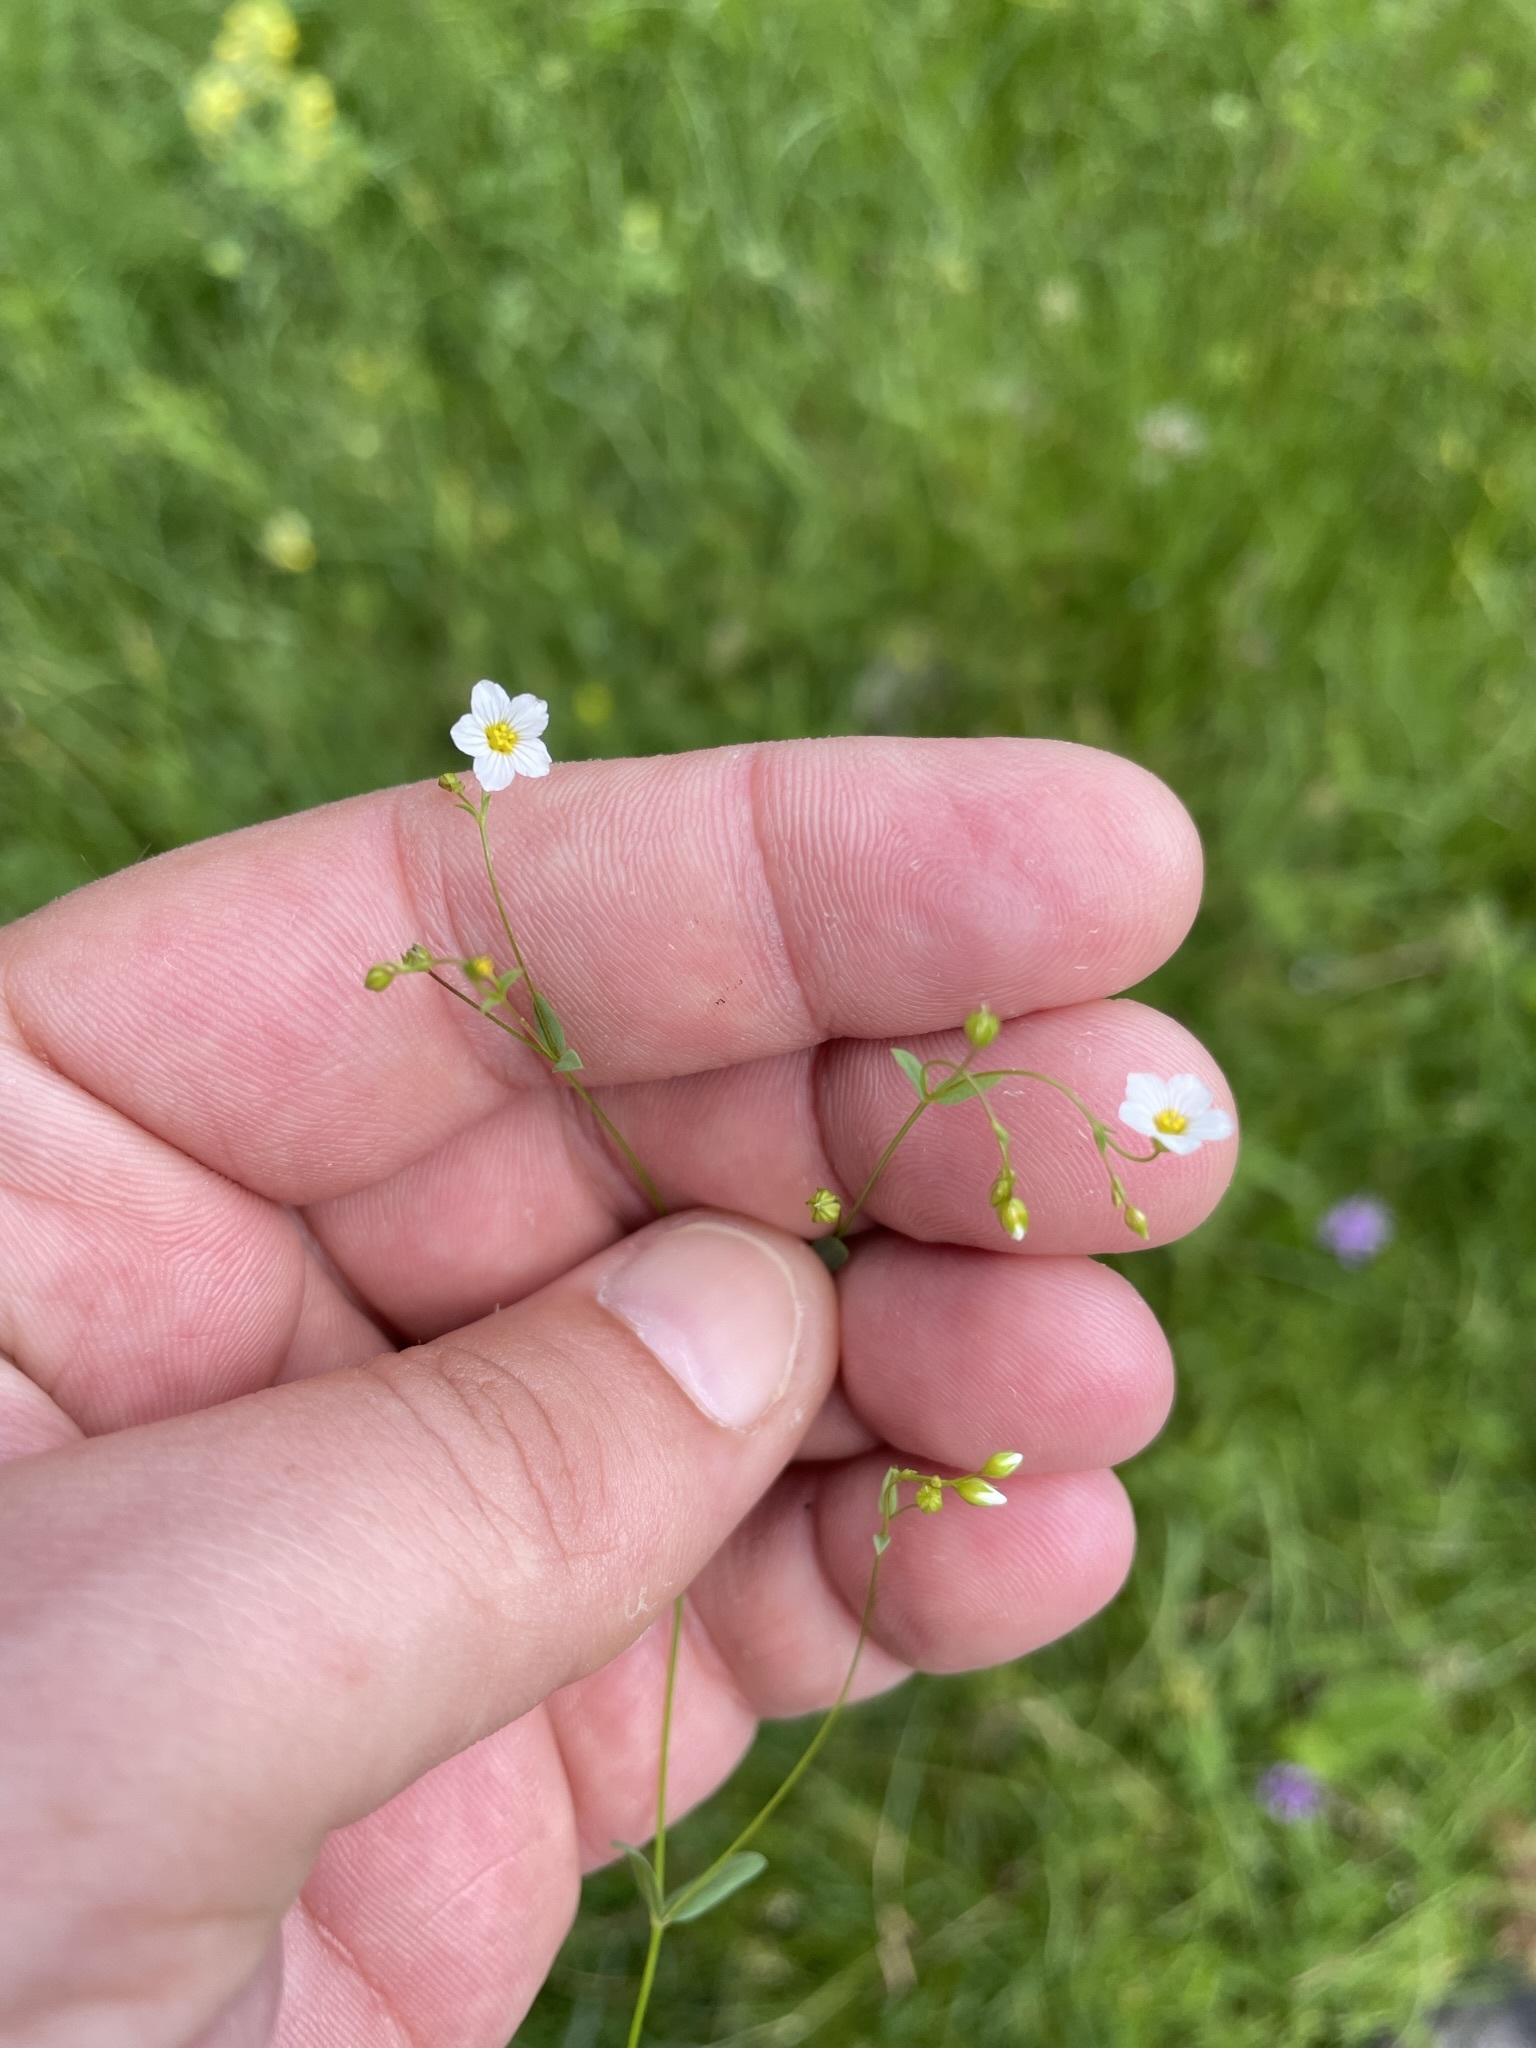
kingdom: Plantae
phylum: Tracheophyta
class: Magnoliopsida
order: Malpighiales
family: Linaceae
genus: Linum
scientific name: Linum catharticum
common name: Fairy flax
